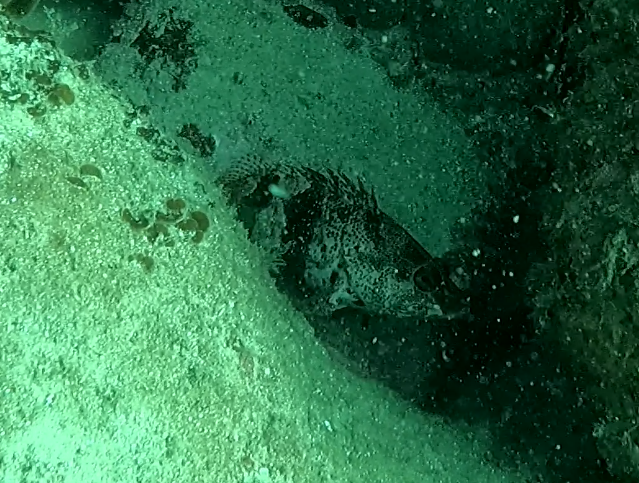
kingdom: Animalia
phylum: Chordata
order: Perciformes
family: Serranidae
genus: Hypoplectrodes
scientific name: Hypoplectrodes nigroruber
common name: Banded seaperch
